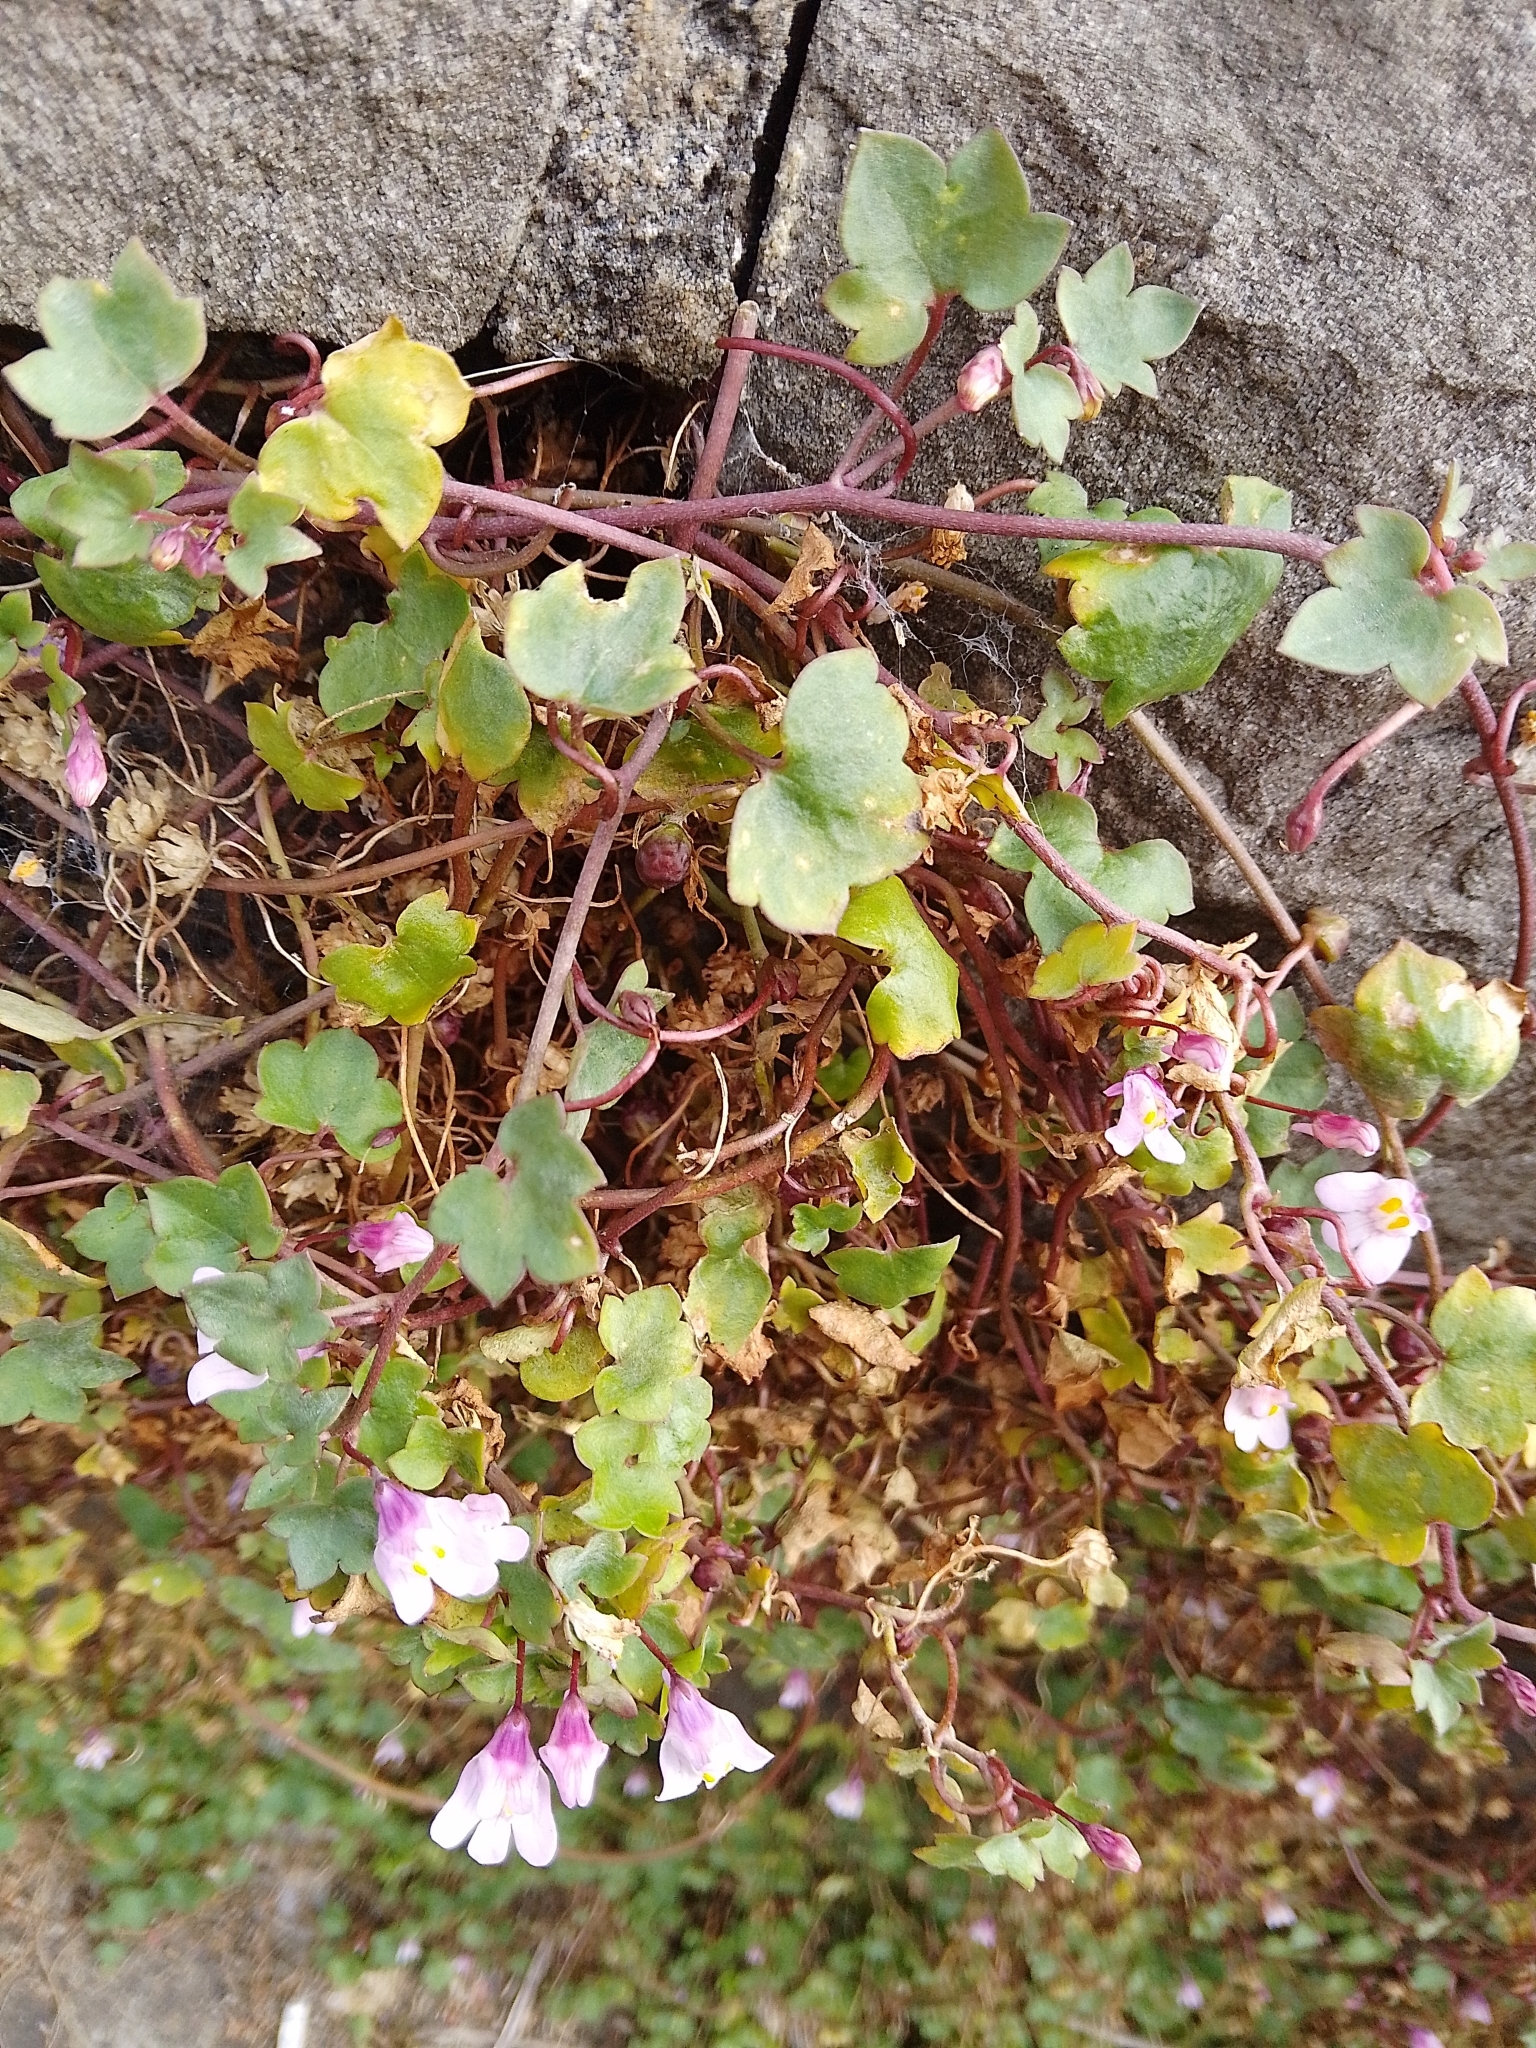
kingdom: Plantae
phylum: Tracheophyta
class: Magnoliopsida
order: Lamiales
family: Plantaginaceae
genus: Cymbalaria
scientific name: Cymbalaria muralis
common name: Ivy-leaved toadflax
